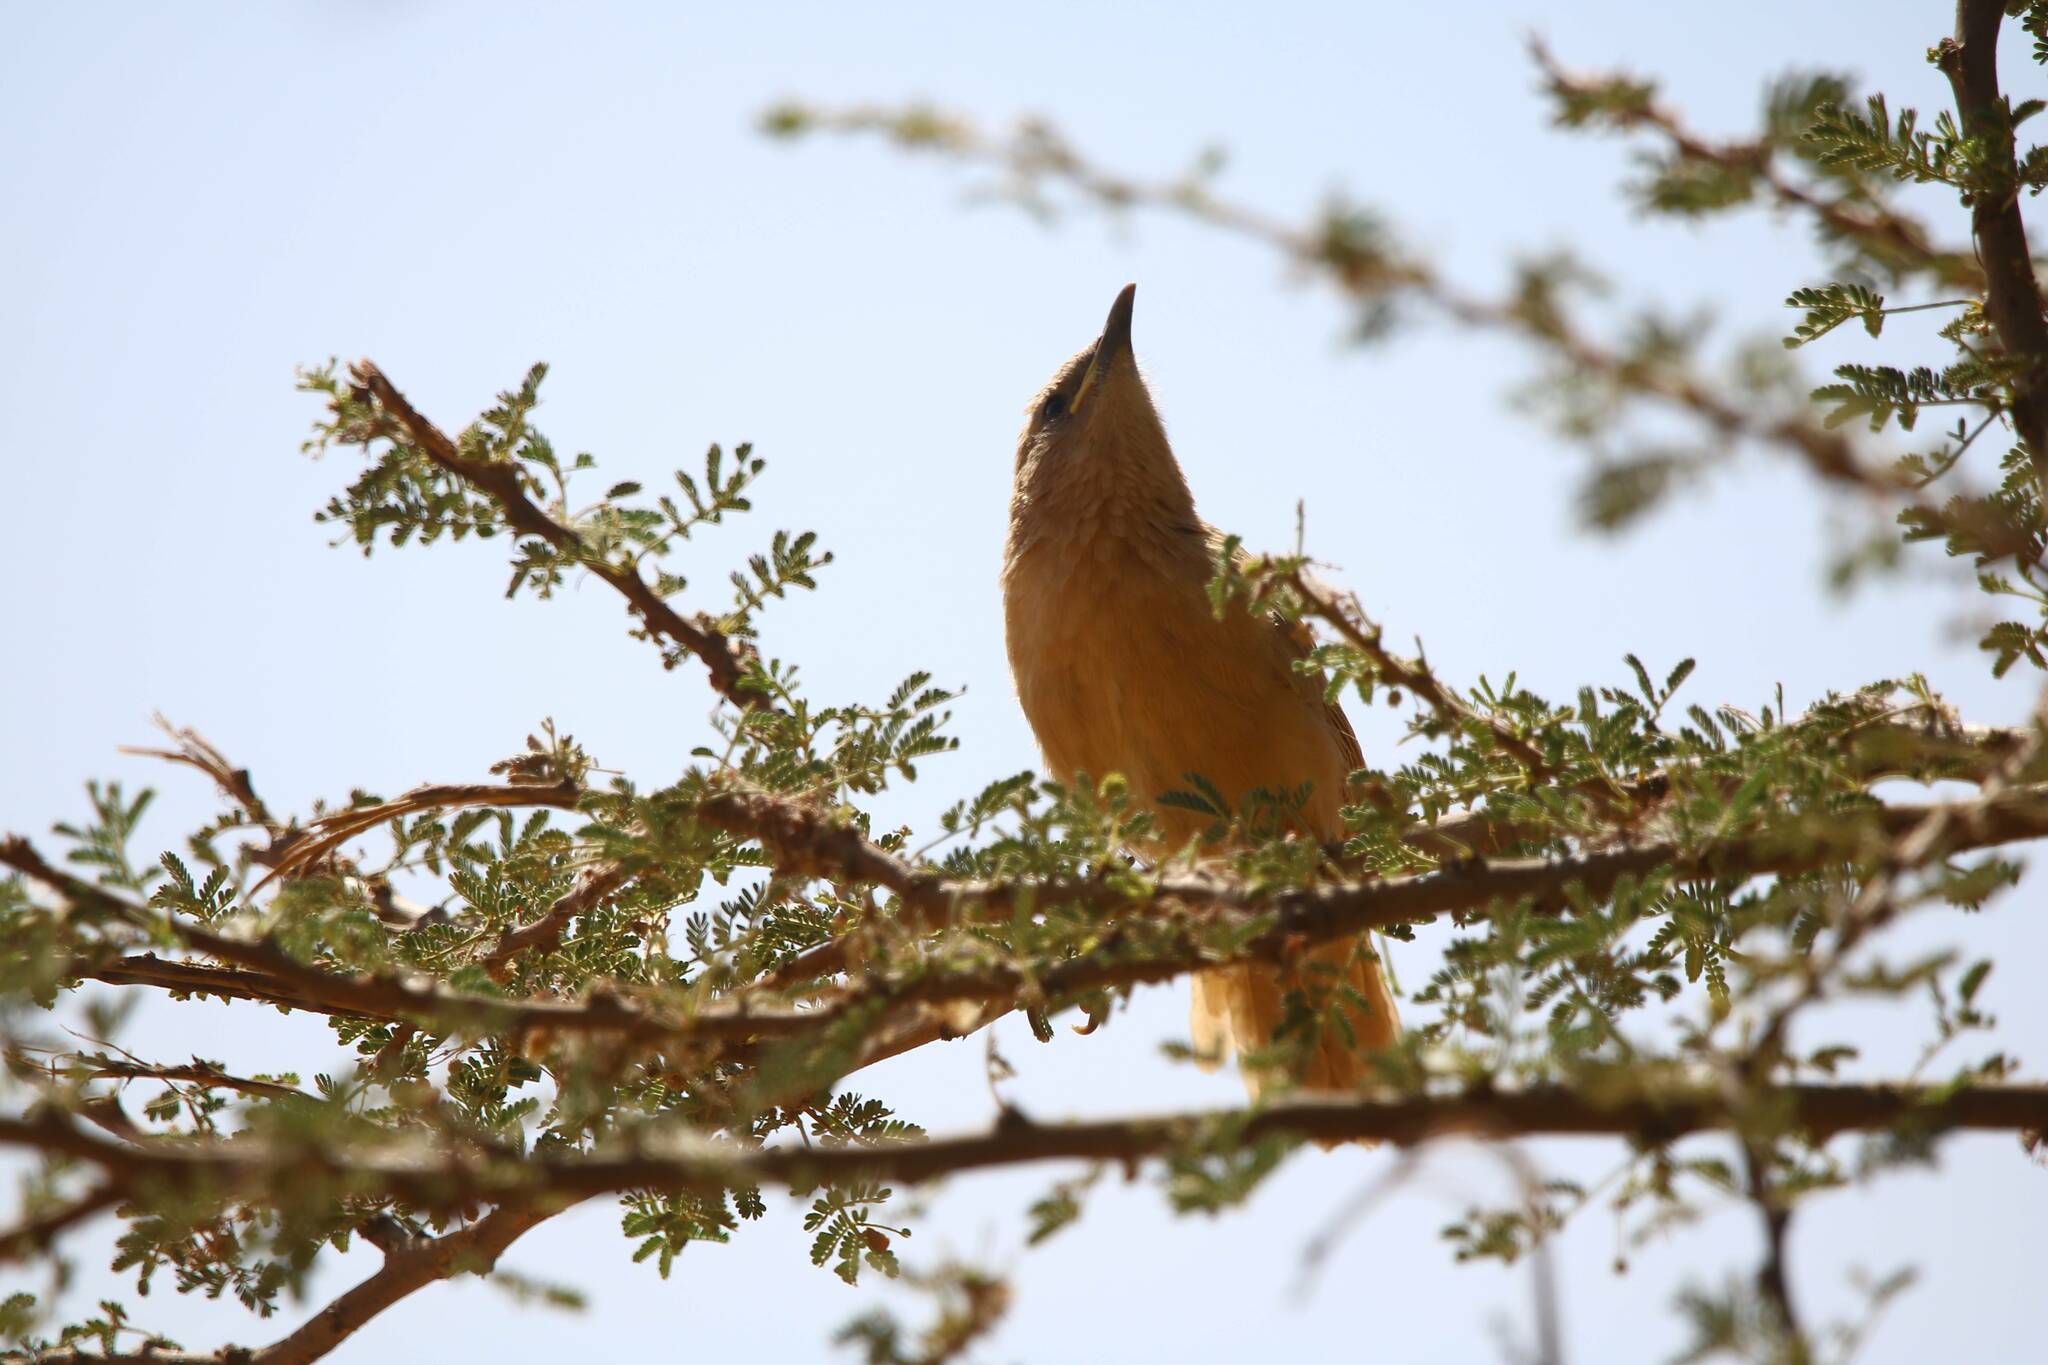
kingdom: Animalia
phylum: Chordata
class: Aves
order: Passeriformes
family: Leiothrichidae
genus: Turdoides
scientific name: Turdoides fulva
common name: Fulvous babbler
